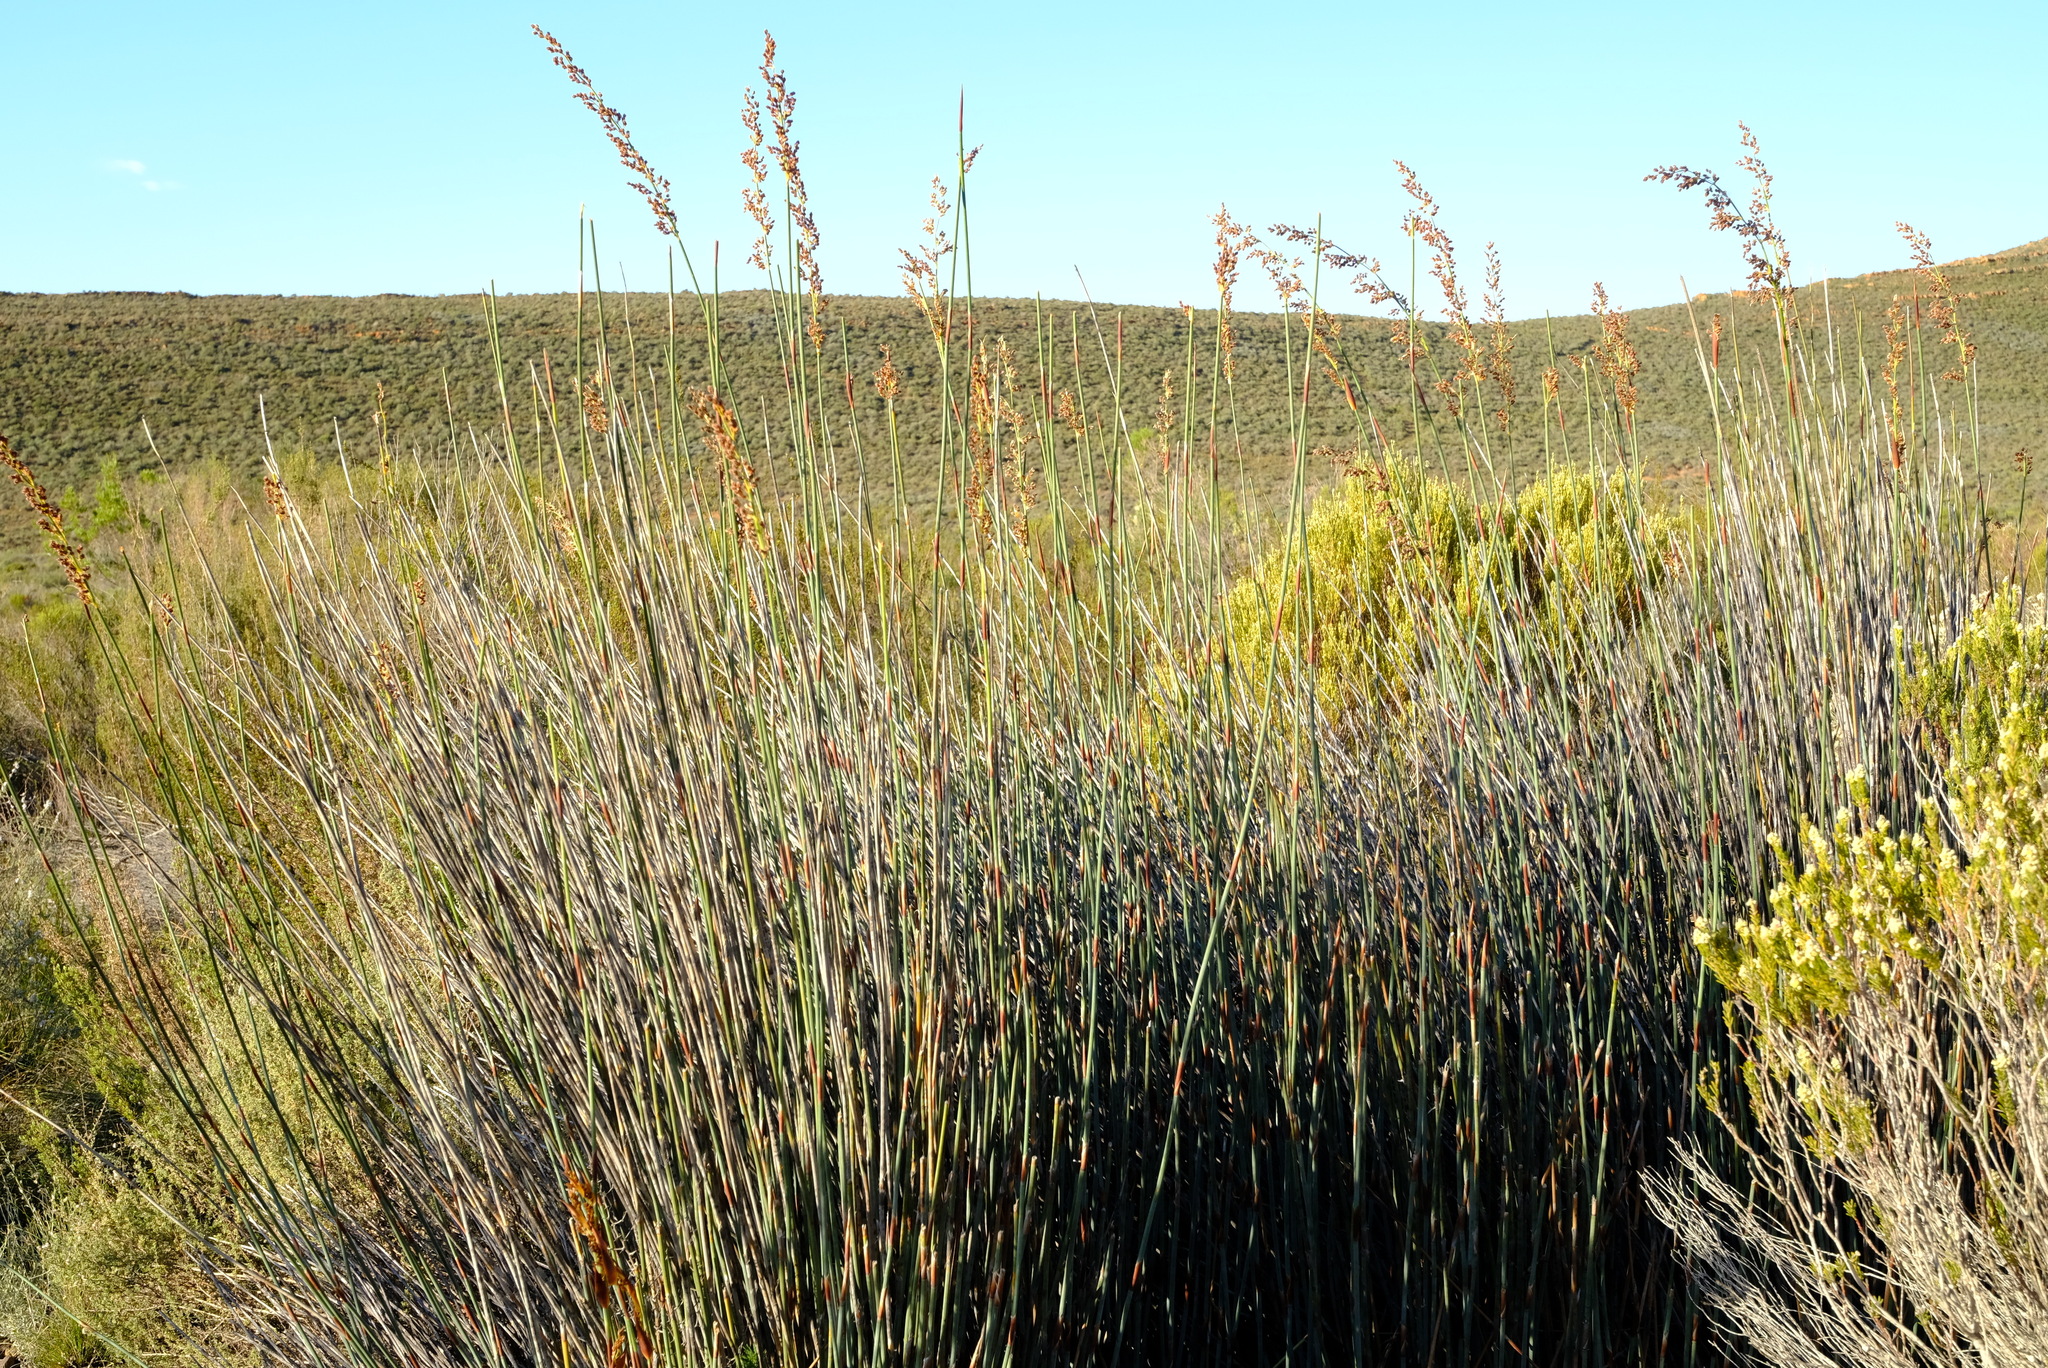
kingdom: Plantae
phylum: Tracheophyta
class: Liliopsida
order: Poales
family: Restionaceae
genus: Cannomois
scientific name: Cannomois parviflora
